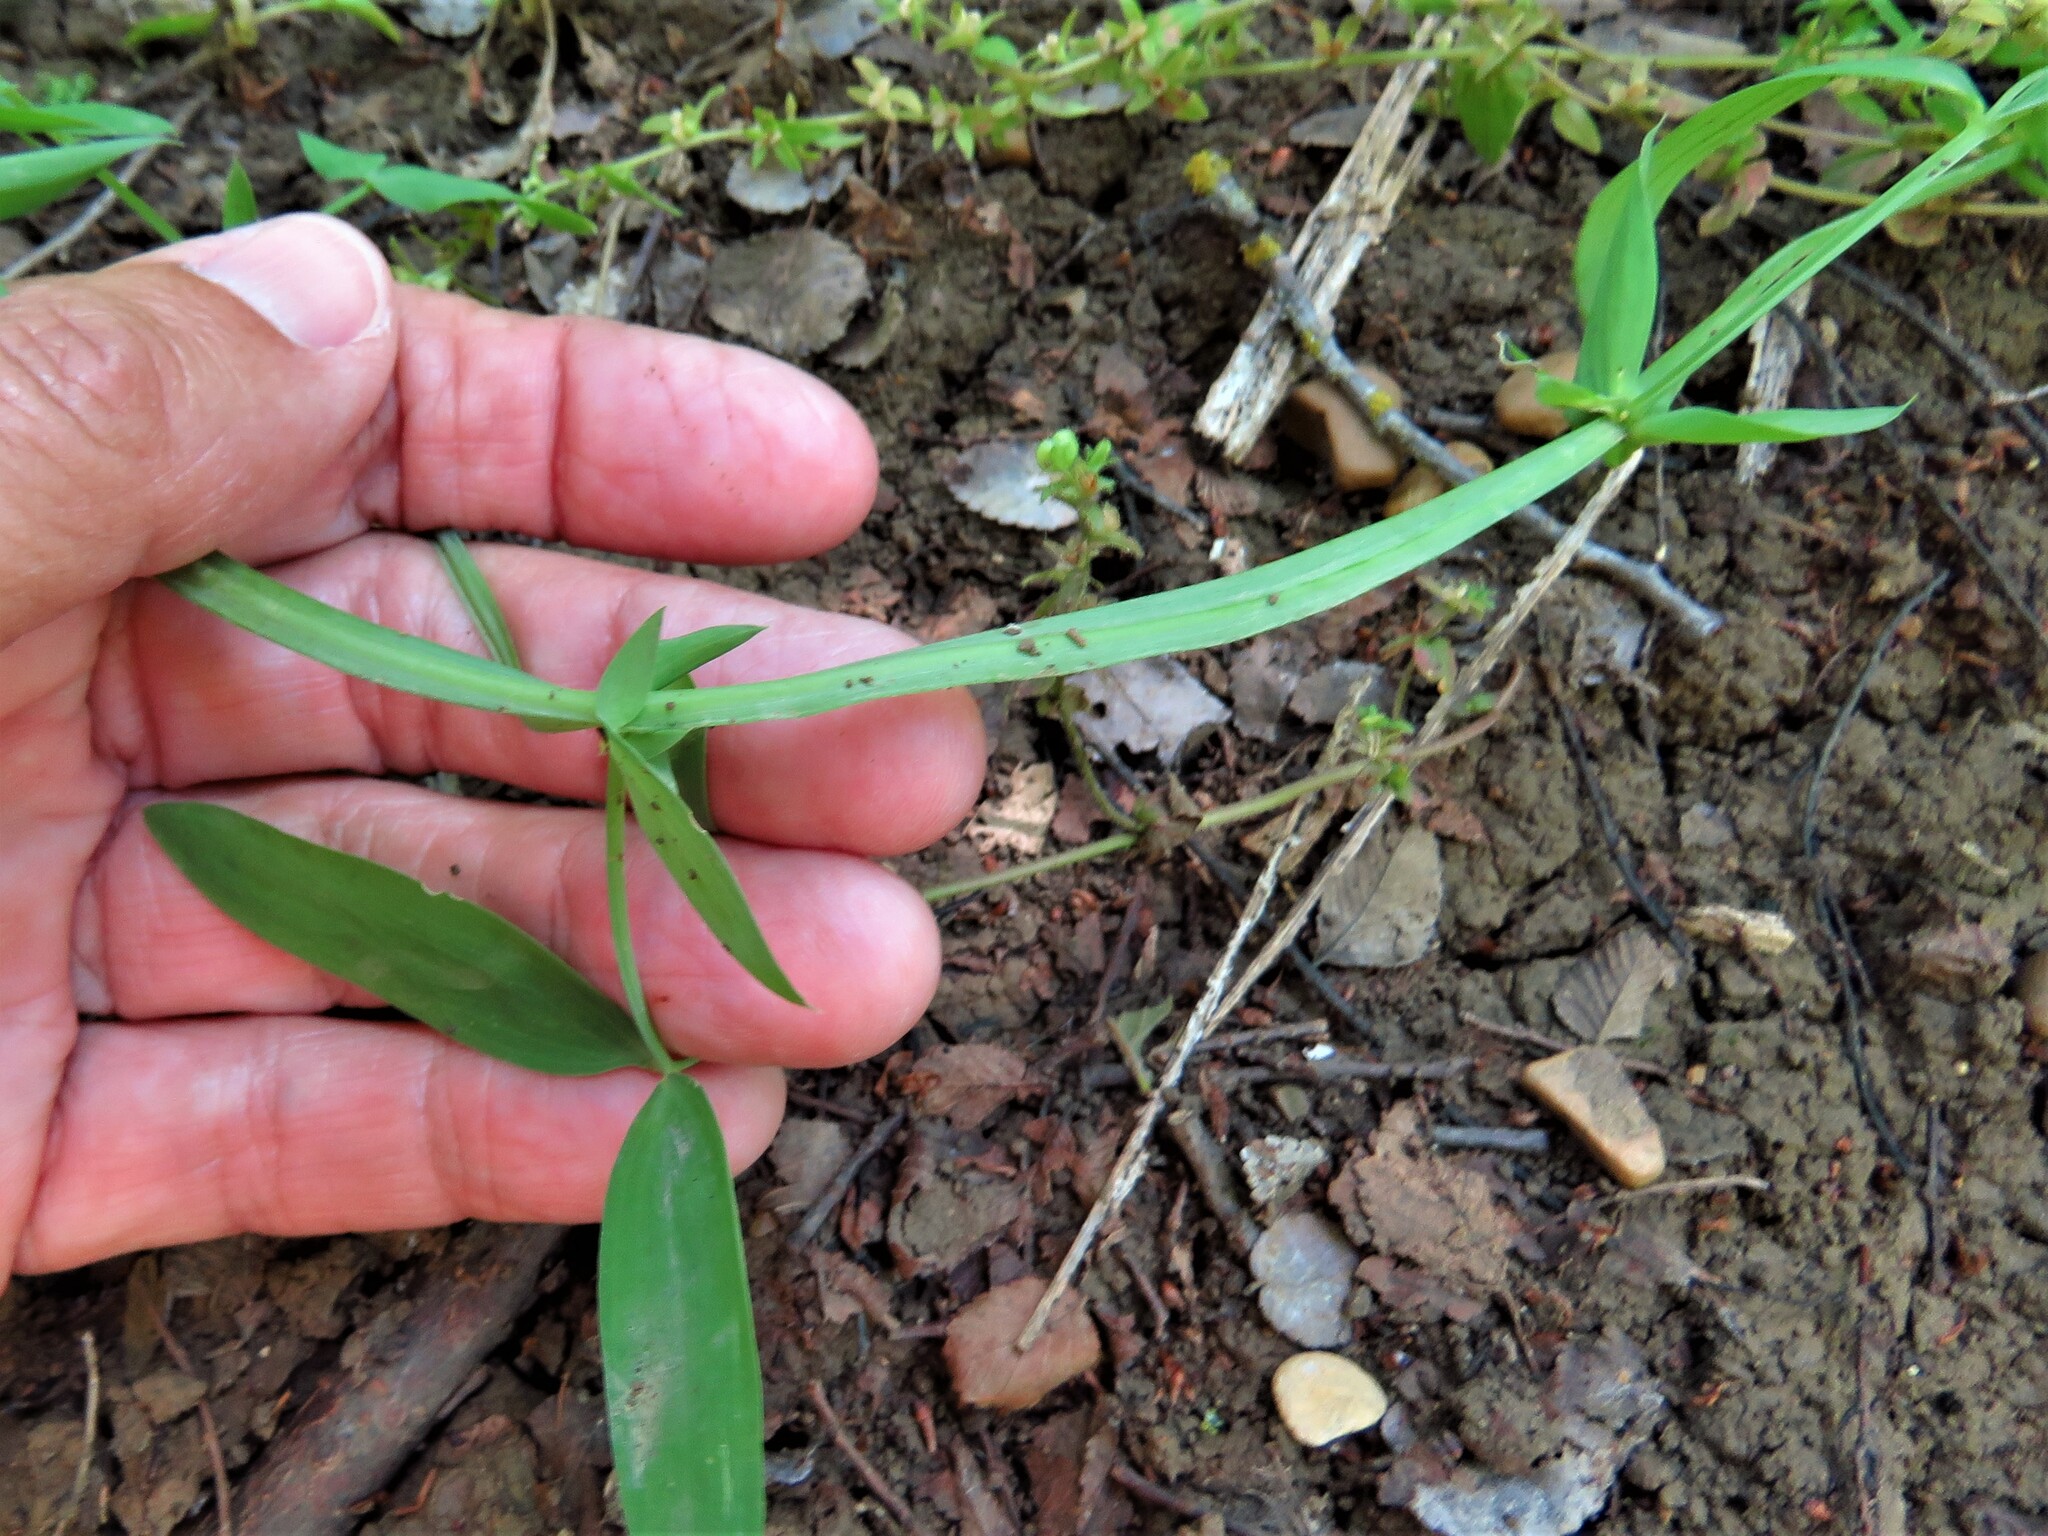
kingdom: Plantae
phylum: Tracheophyta
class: Magnoliopsida
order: Fabales
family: Fabaceae
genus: Lathyrus
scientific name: Lathyrus hirsutus
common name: Hairy vetchling
